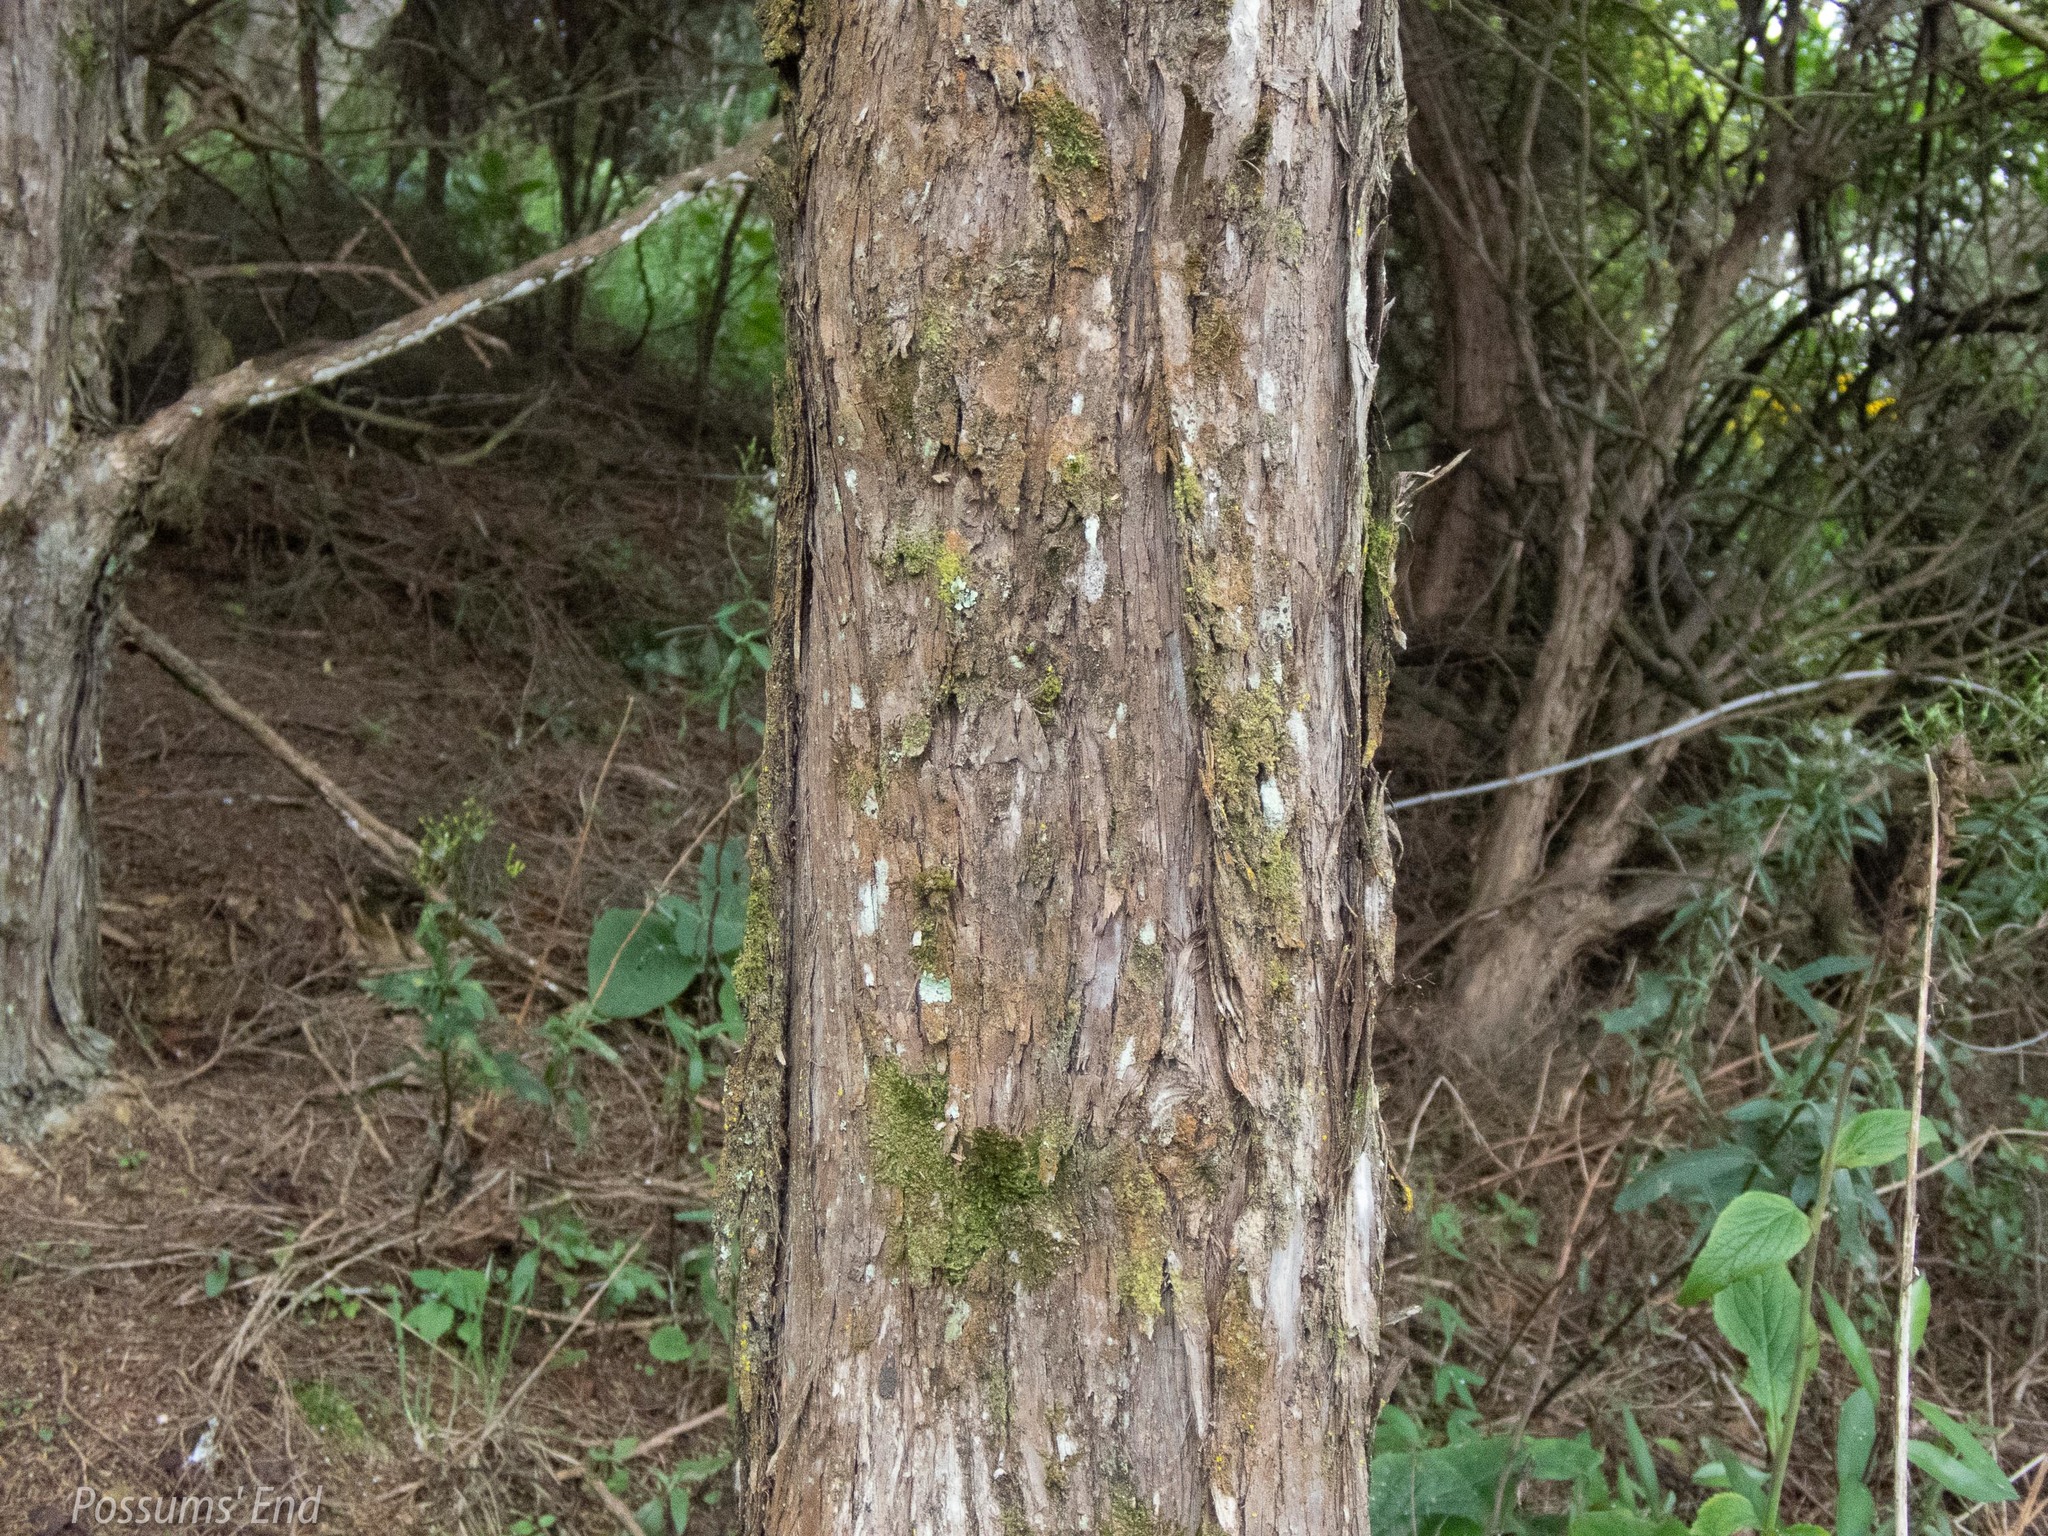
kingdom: Animalia
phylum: Arthropoda
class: Insecta
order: Lepidoptera
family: Geometridae
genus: Pseudocoremia
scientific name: Pseudocoremia lupinata
